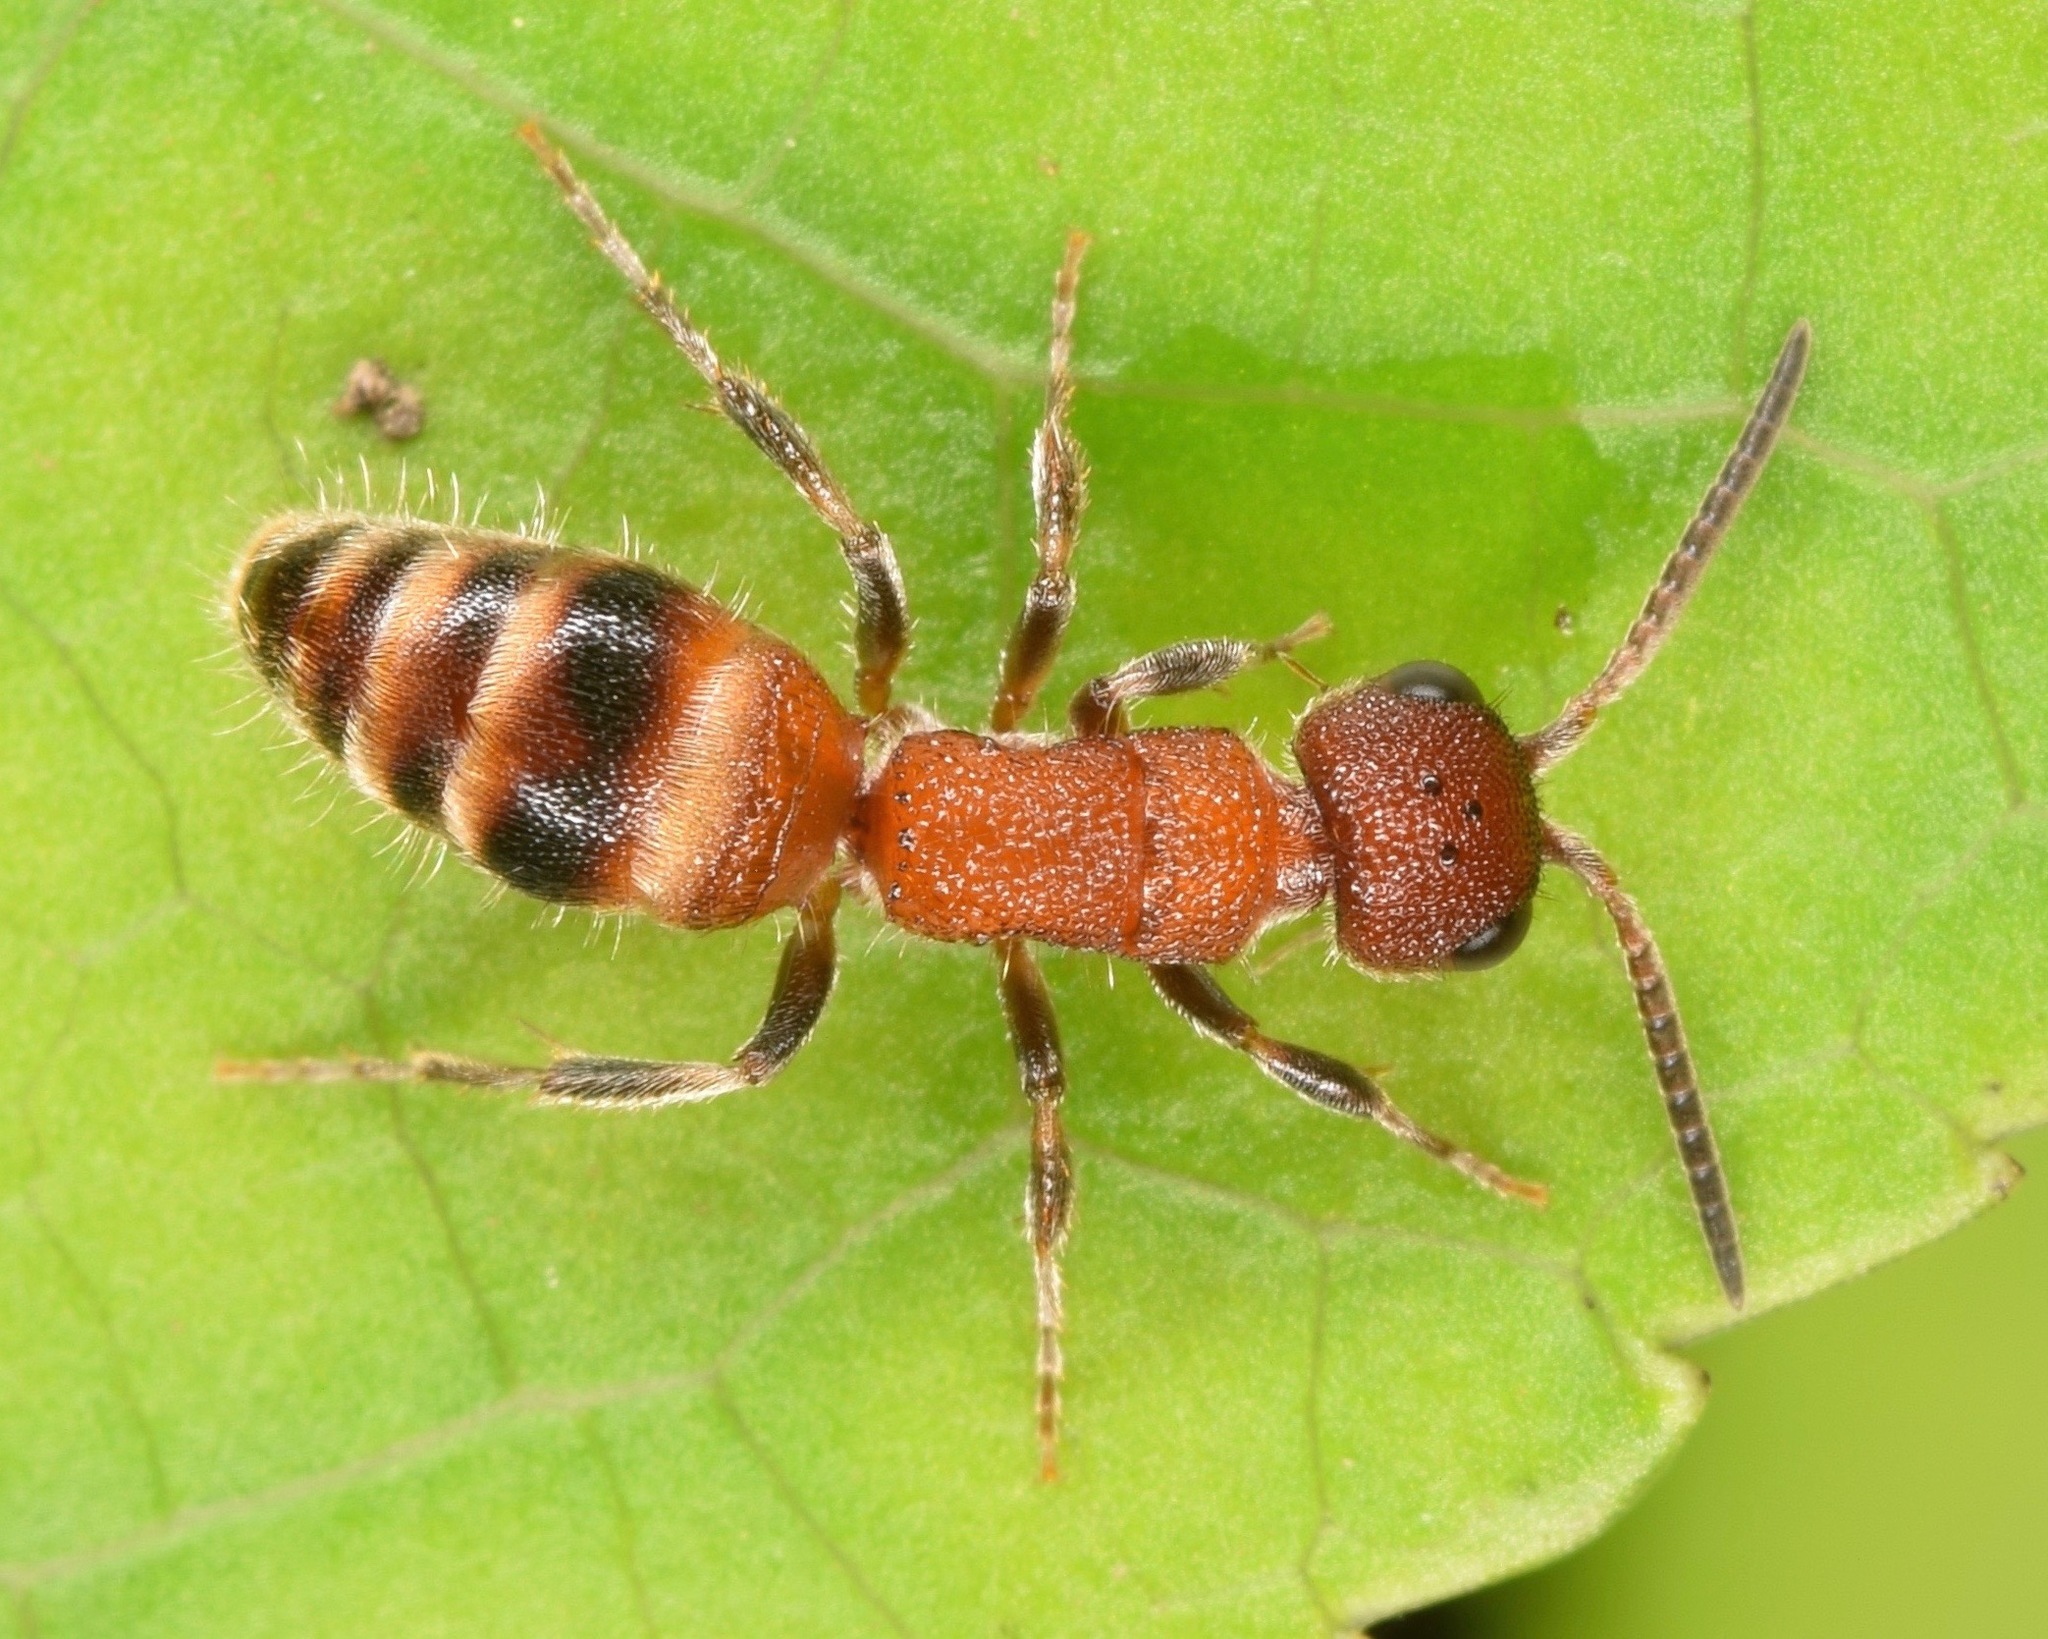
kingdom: Animalia
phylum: Arthropoda
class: Insecta
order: Hymenoptera
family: Mutillidae
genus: Myrmosa
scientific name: Myrmosa
